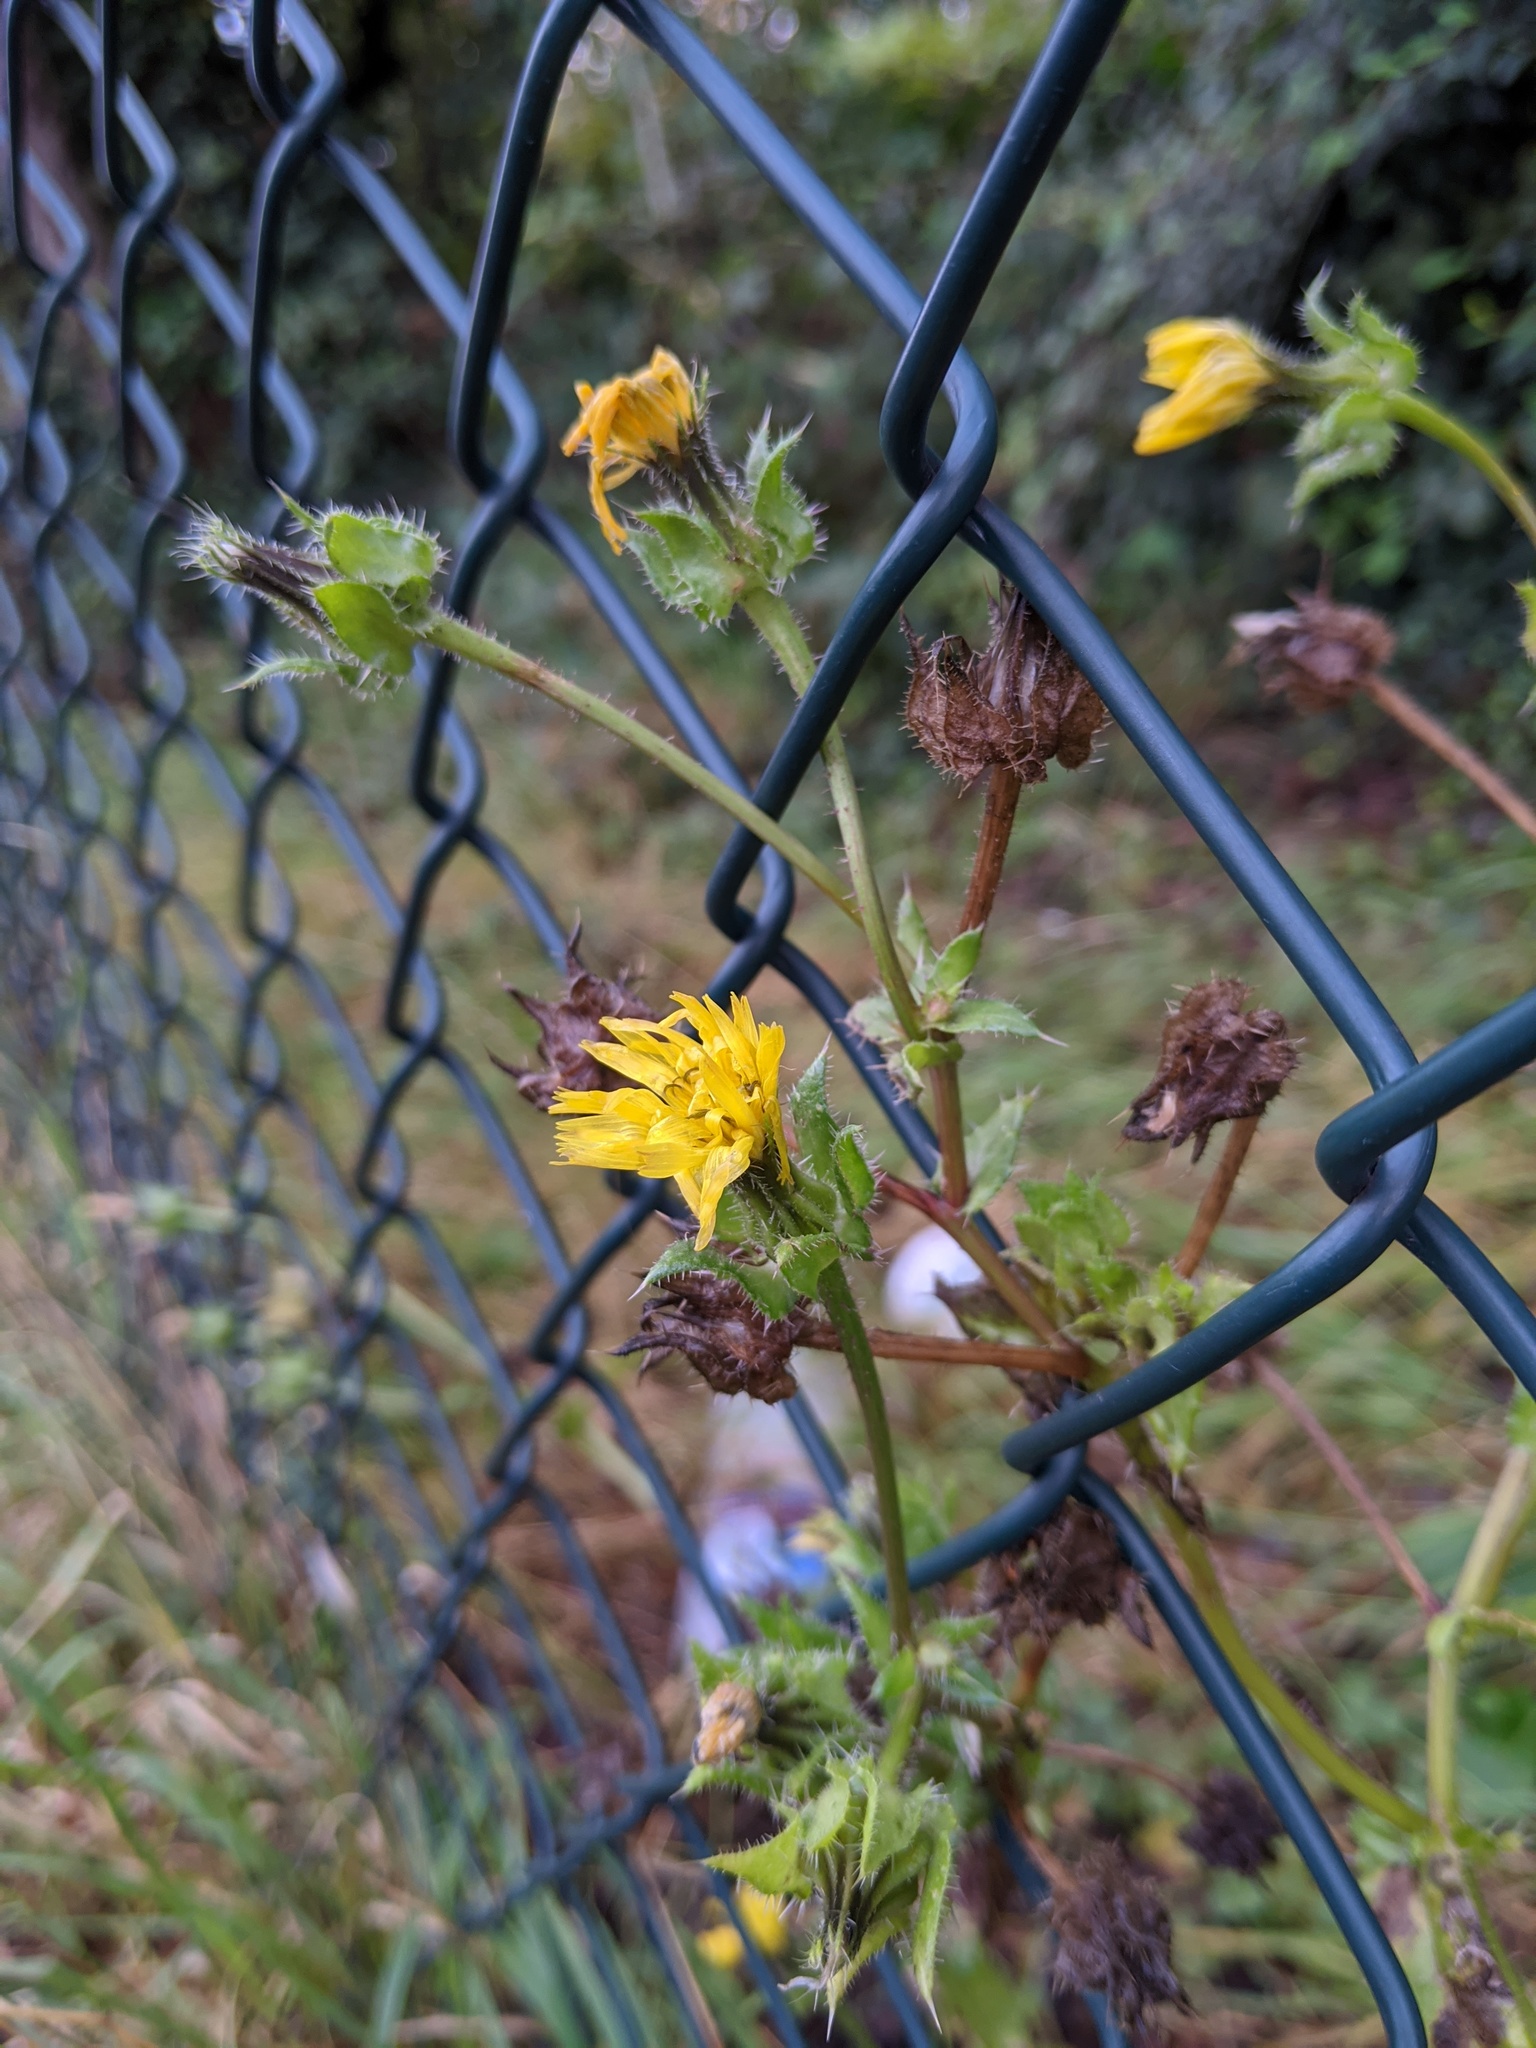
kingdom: Plantae
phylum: Tracheophyta
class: Magnoliopsida
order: Asterales
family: Asteraceae
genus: Helminthotheca
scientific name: Helminthotheca echioides
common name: Ox-tongue
